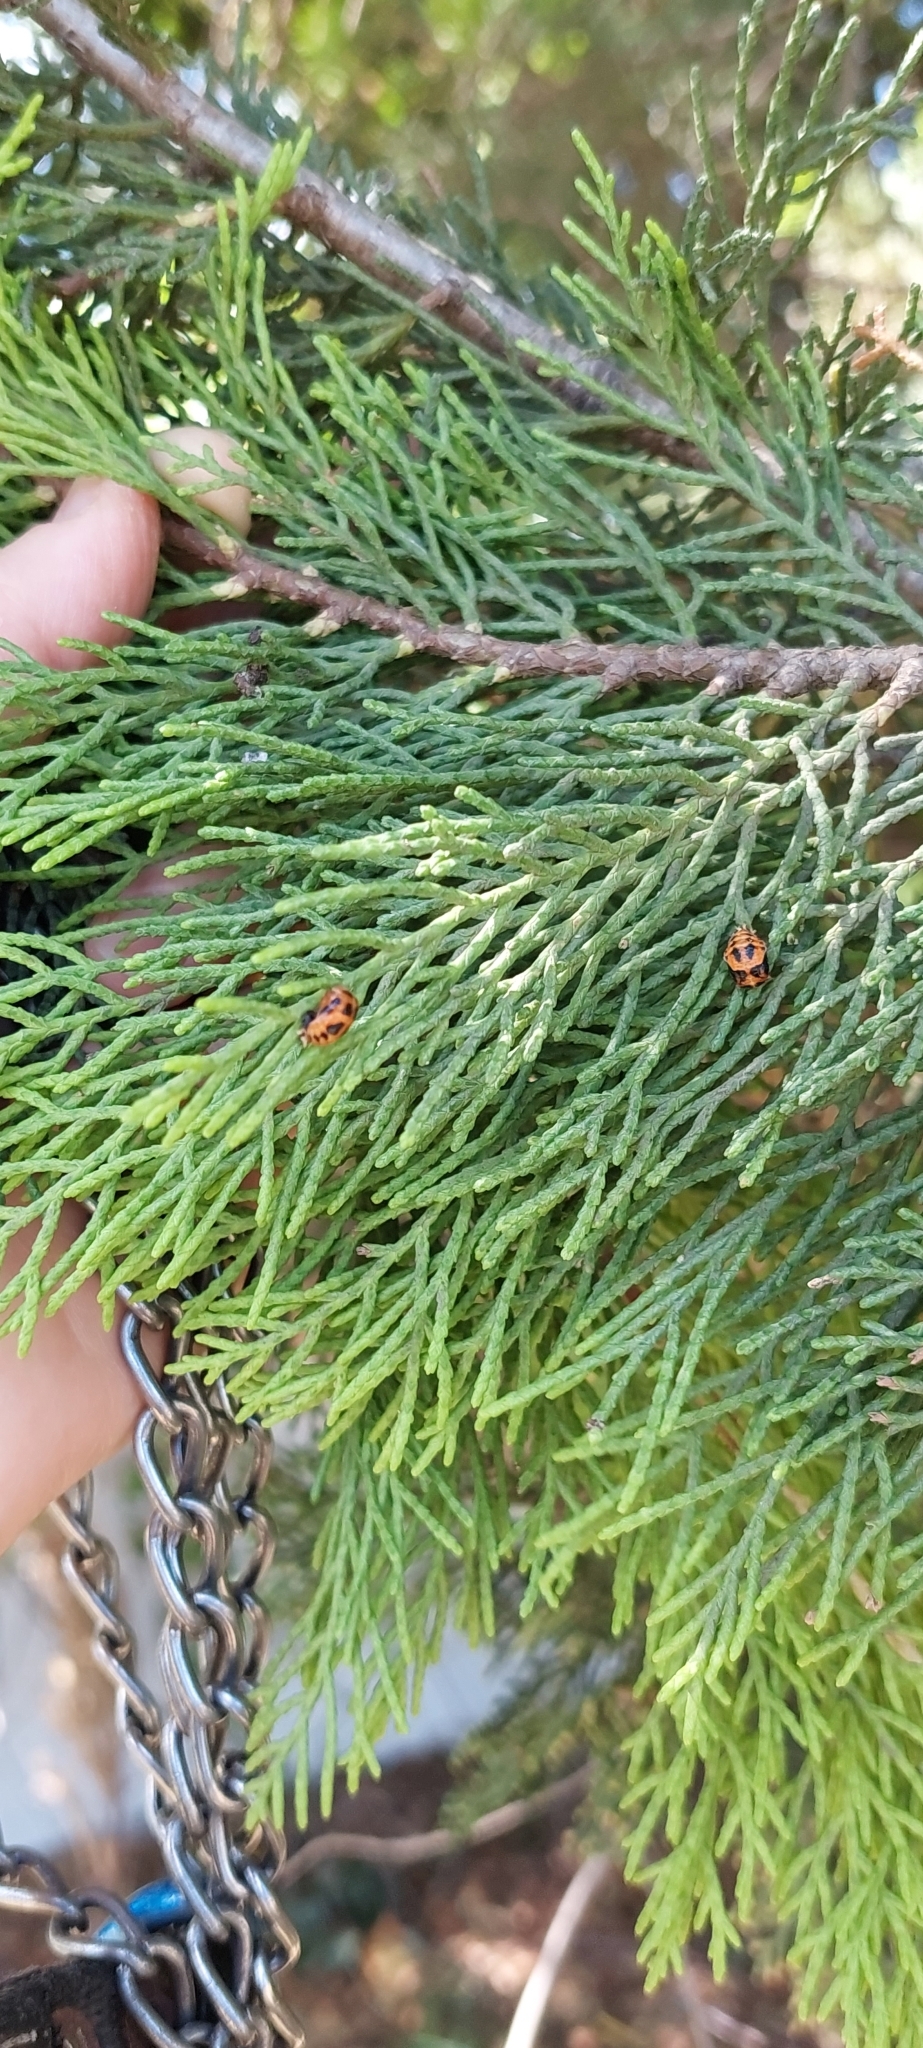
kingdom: Animalia
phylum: Arthropoda
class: Insecta
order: Coleoptera
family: Coccinellidae
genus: Harmonia
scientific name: Harmonia axyridis
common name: Harlequin ladybird
